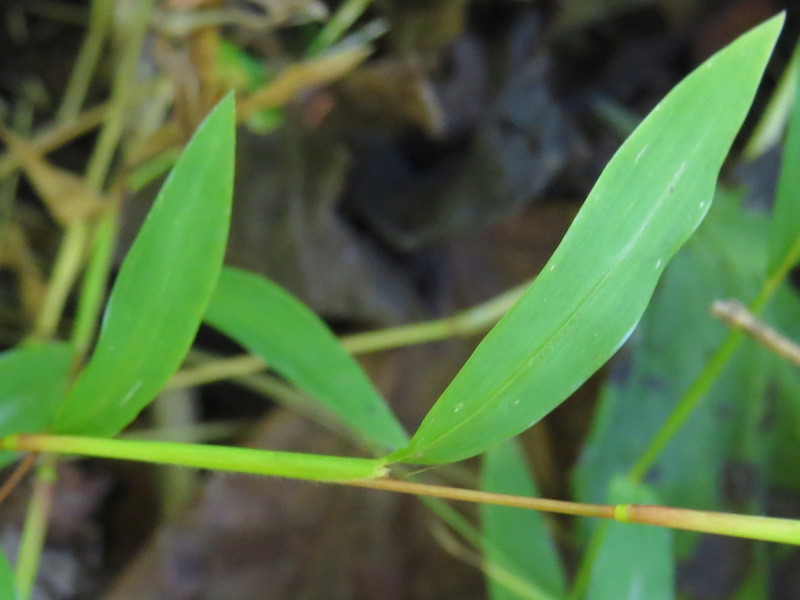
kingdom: Plantae
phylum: Tracheophyta
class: Liliopsida
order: Poales
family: Poaceae
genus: Microstegium
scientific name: Microstegium vimineum
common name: Japanese stiltgrass
